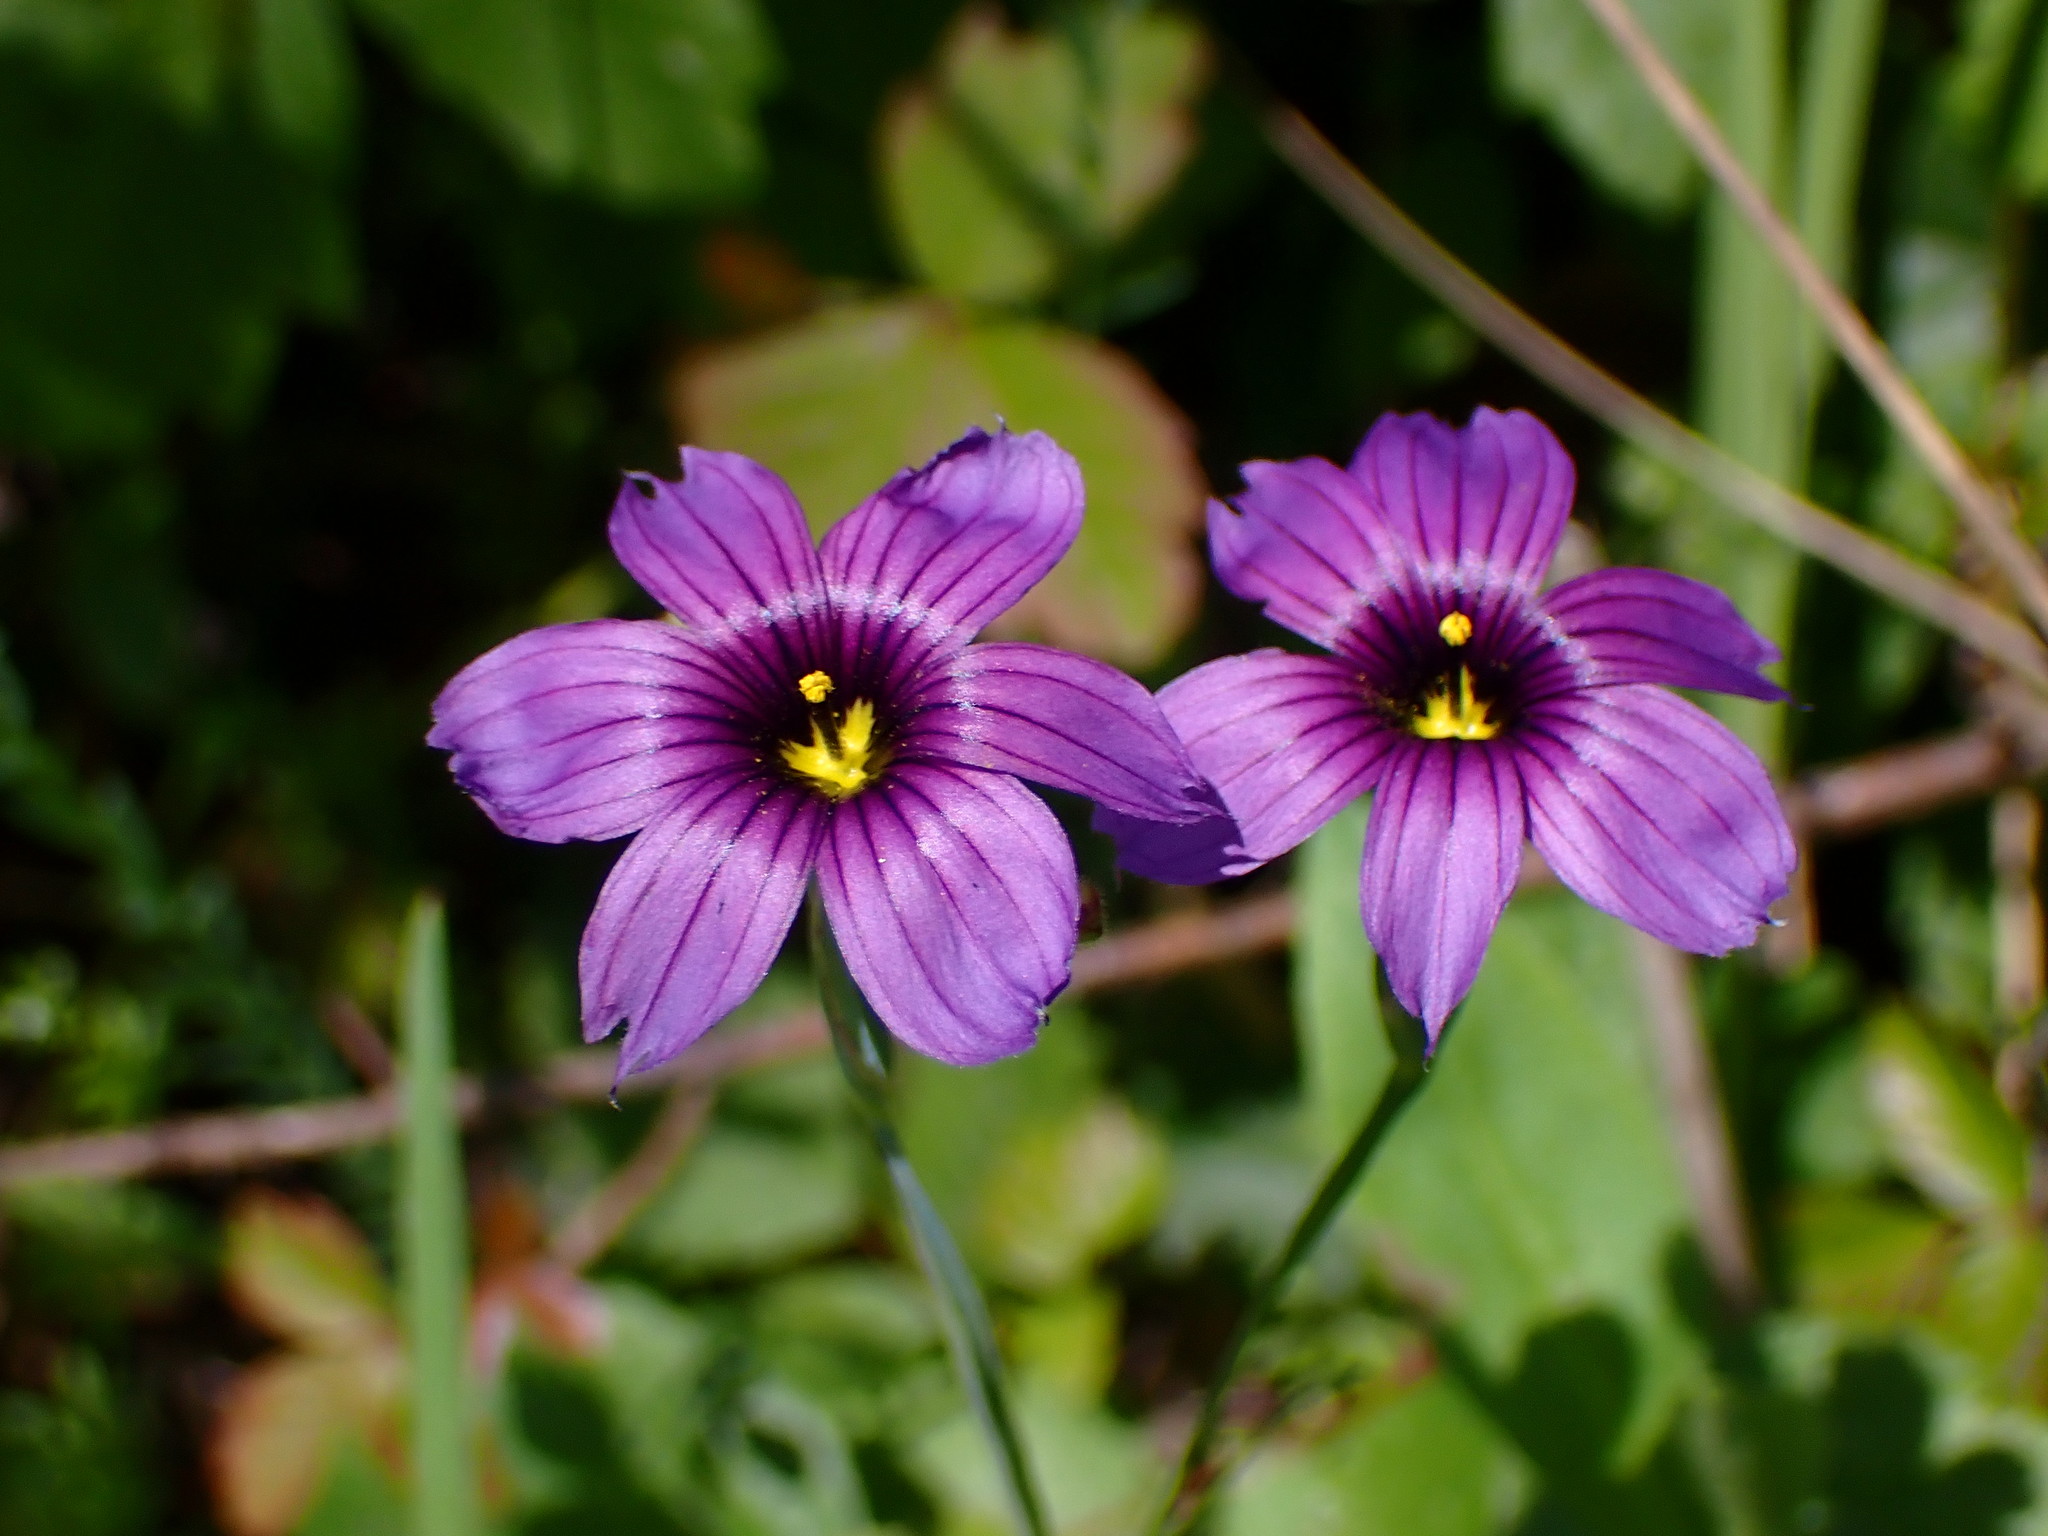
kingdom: Plantae
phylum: Tracheophyta
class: Liliopsida
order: Asparagales
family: Iridaceae
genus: Sisyrinchium
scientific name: Sisyrinchium bellum
